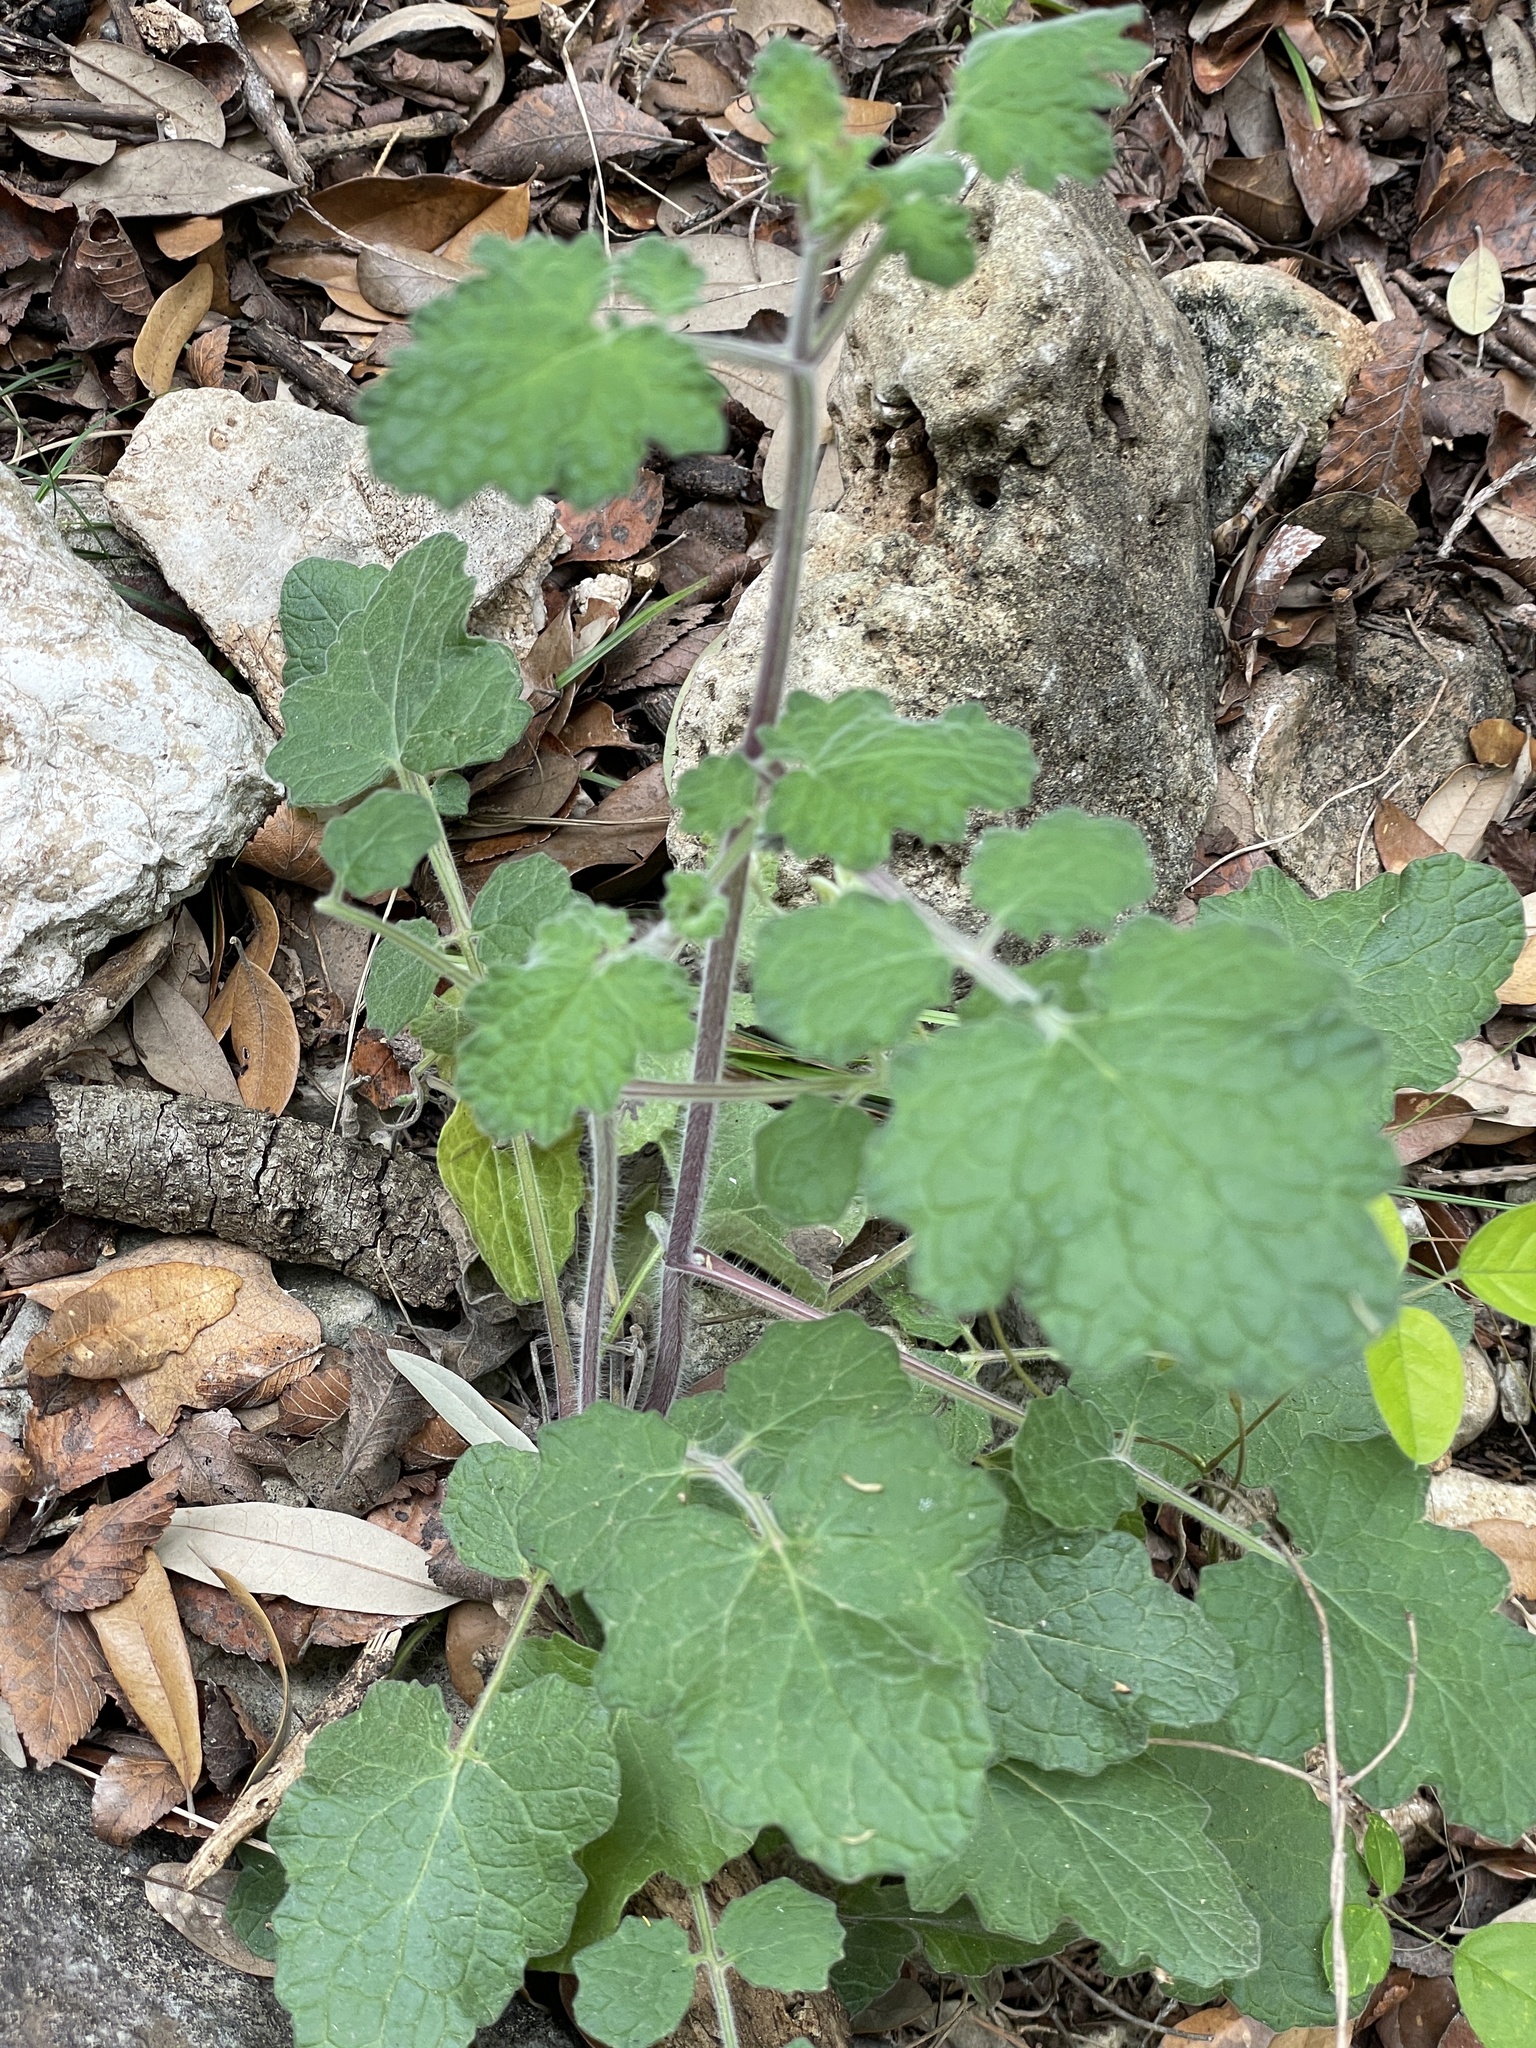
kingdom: Plantae
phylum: Tracheophyta
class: Magnoliopsida
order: Lamiales
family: Lamiaceae
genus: Salvia
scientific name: Salvia roemeriana
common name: Cedar sage
